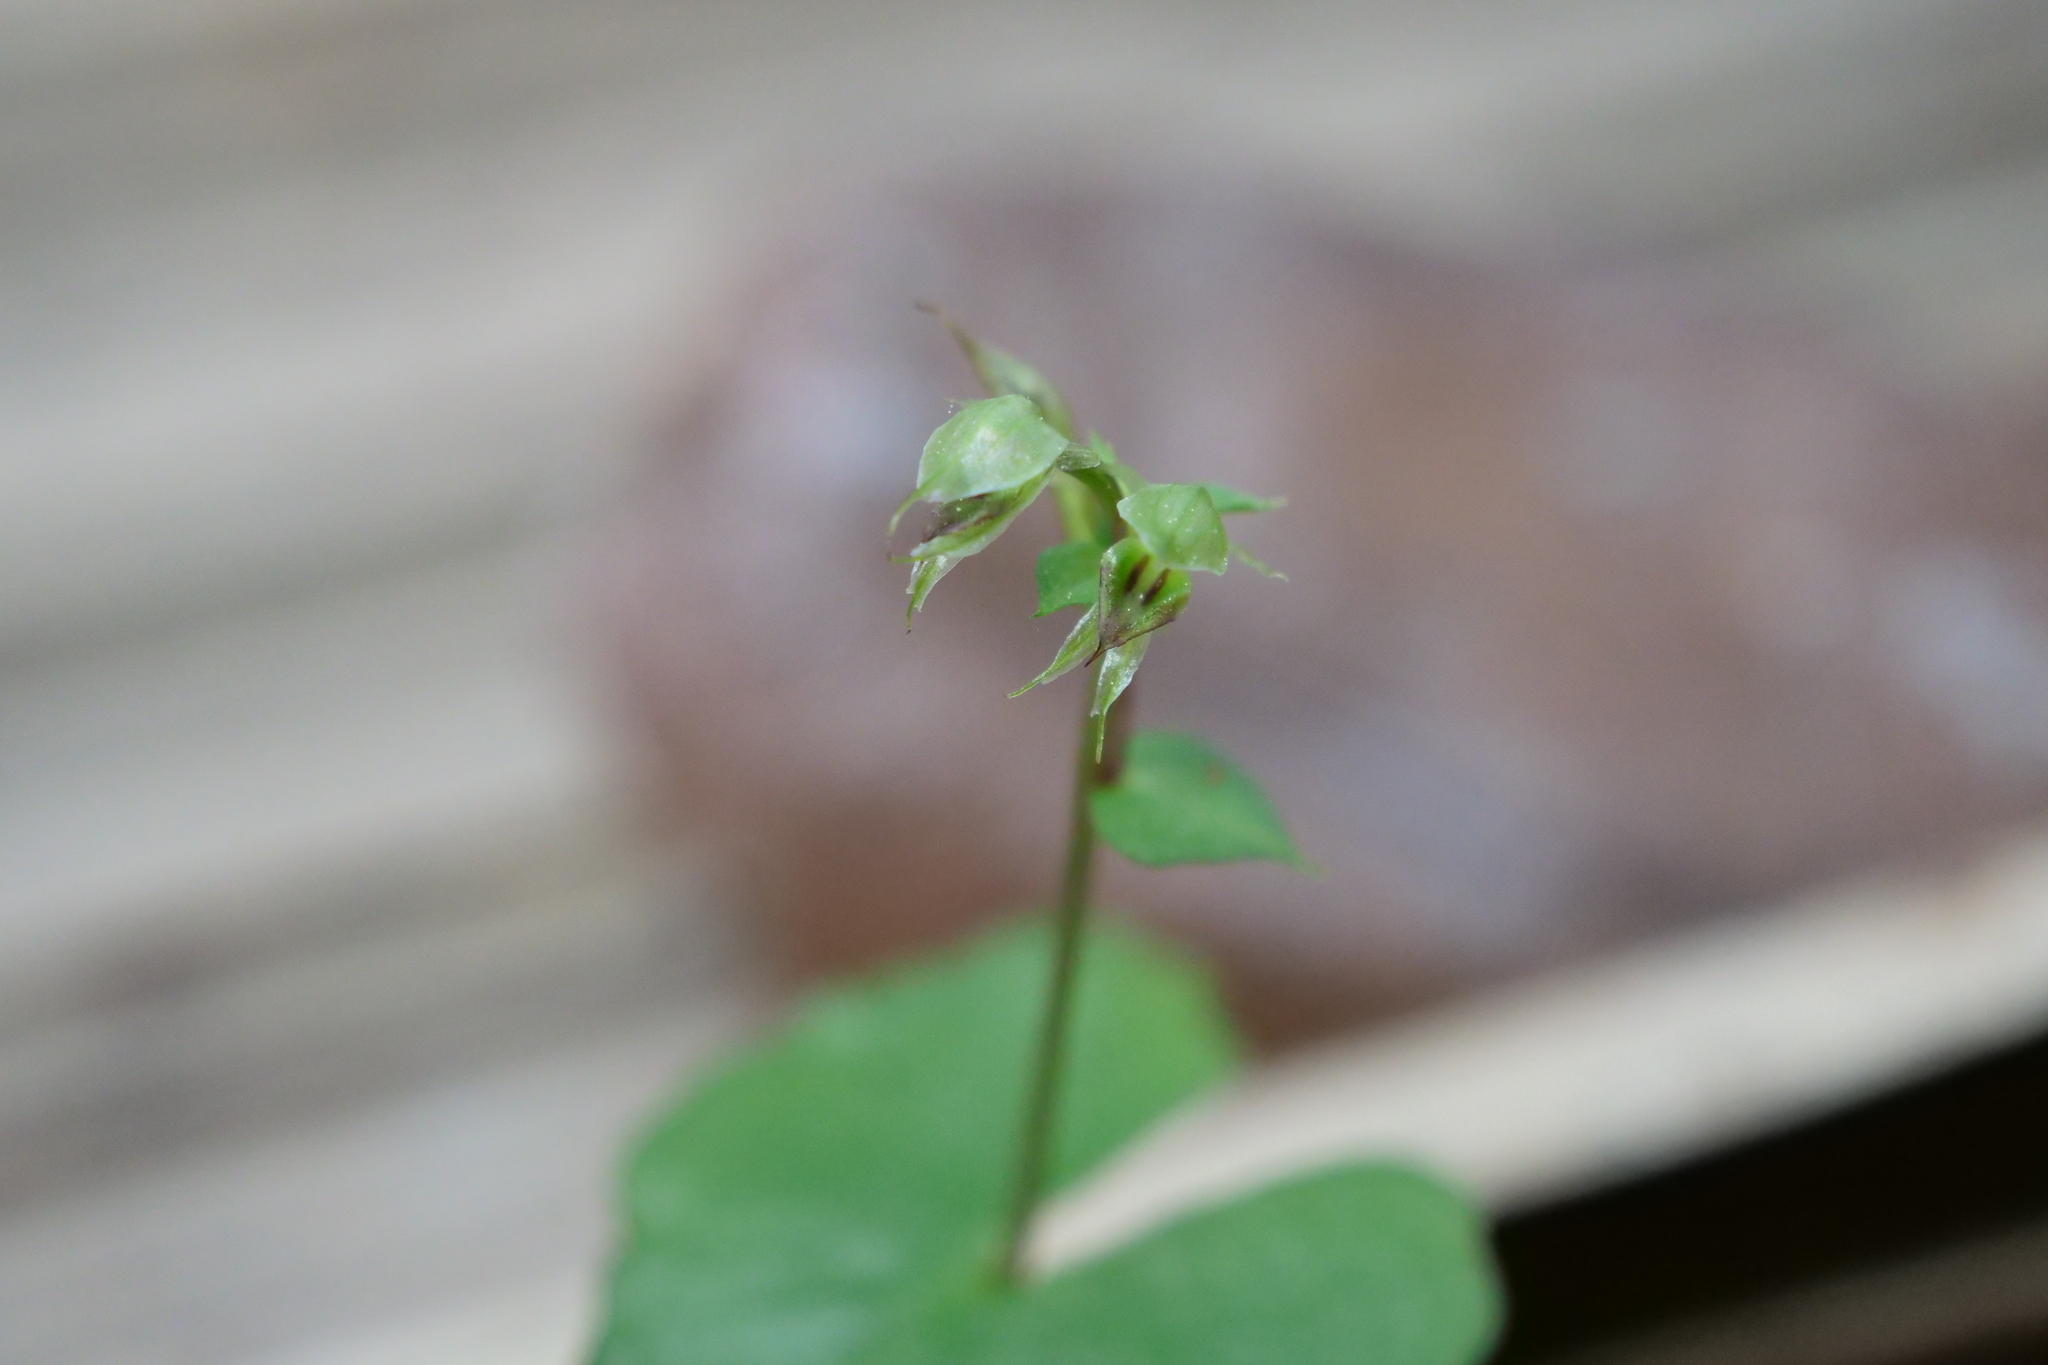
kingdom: Plantae
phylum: Tracheophyta
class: Liliopsida
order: Asparagales
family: Orchidaceae
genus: Acianthus
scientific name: Acianthus sinclairii
